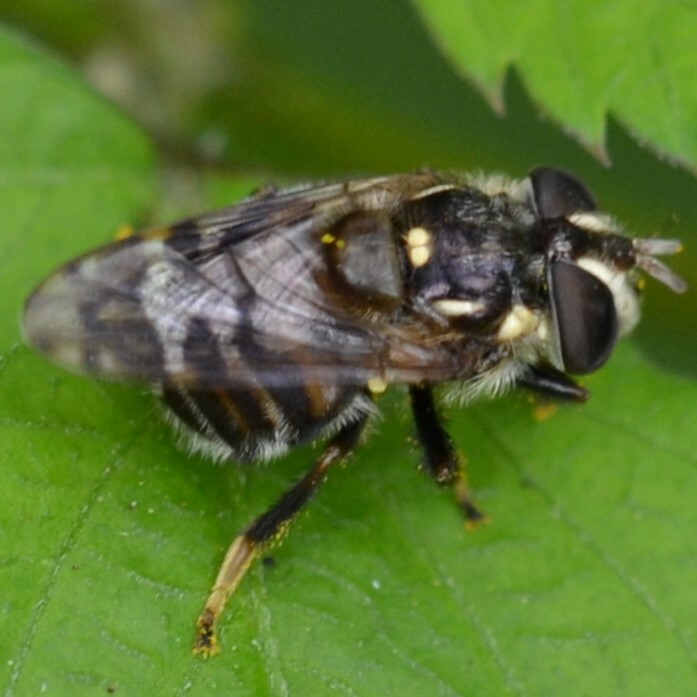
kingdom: Animalia
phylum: Arthropoda
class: Insecta
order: Diptera
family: Syrphidae
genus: Copestylum
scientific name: Copestylum tamaulipanum
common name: Syrphid fly
